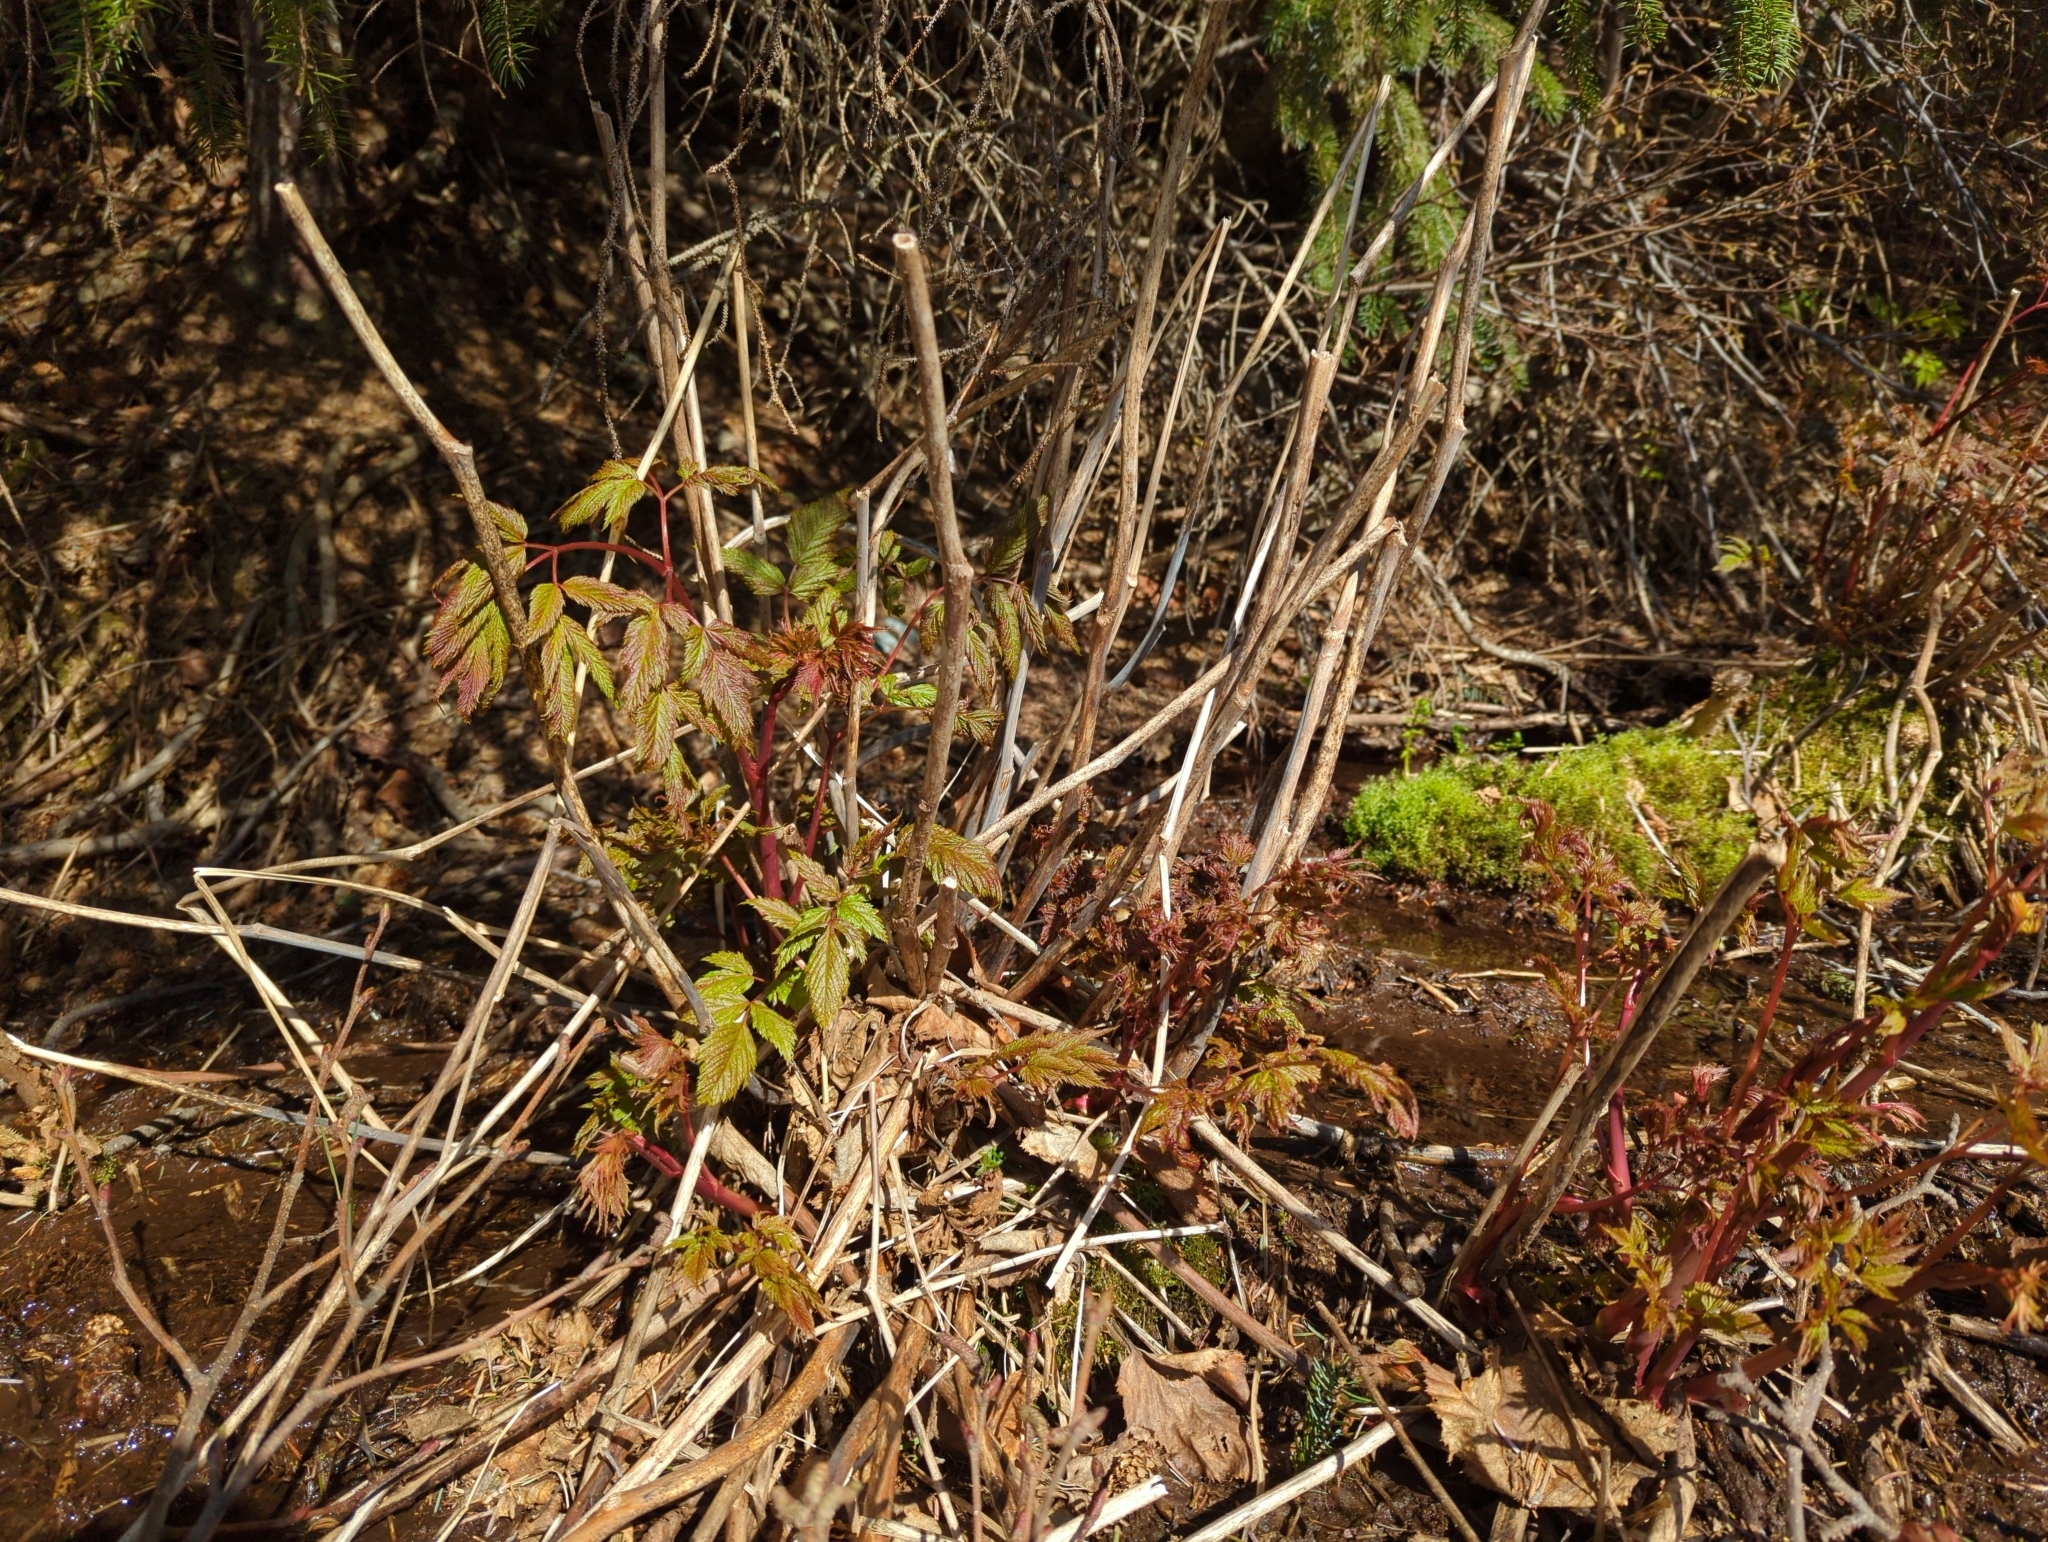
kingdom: Plantae
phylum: Tracheophyta
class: Magnoliopsida
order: Rosales
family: Rosaceae
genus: Aruncus
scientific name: Aruncus dioicus
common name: Buck's-beard
